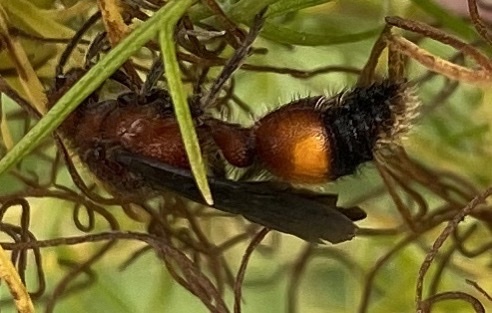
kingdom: Animalia
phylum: Arthropoda
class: Insecta
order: Hymenoptera
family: Mutillidae
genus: Dasymutilla
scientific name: Dasymutilla
